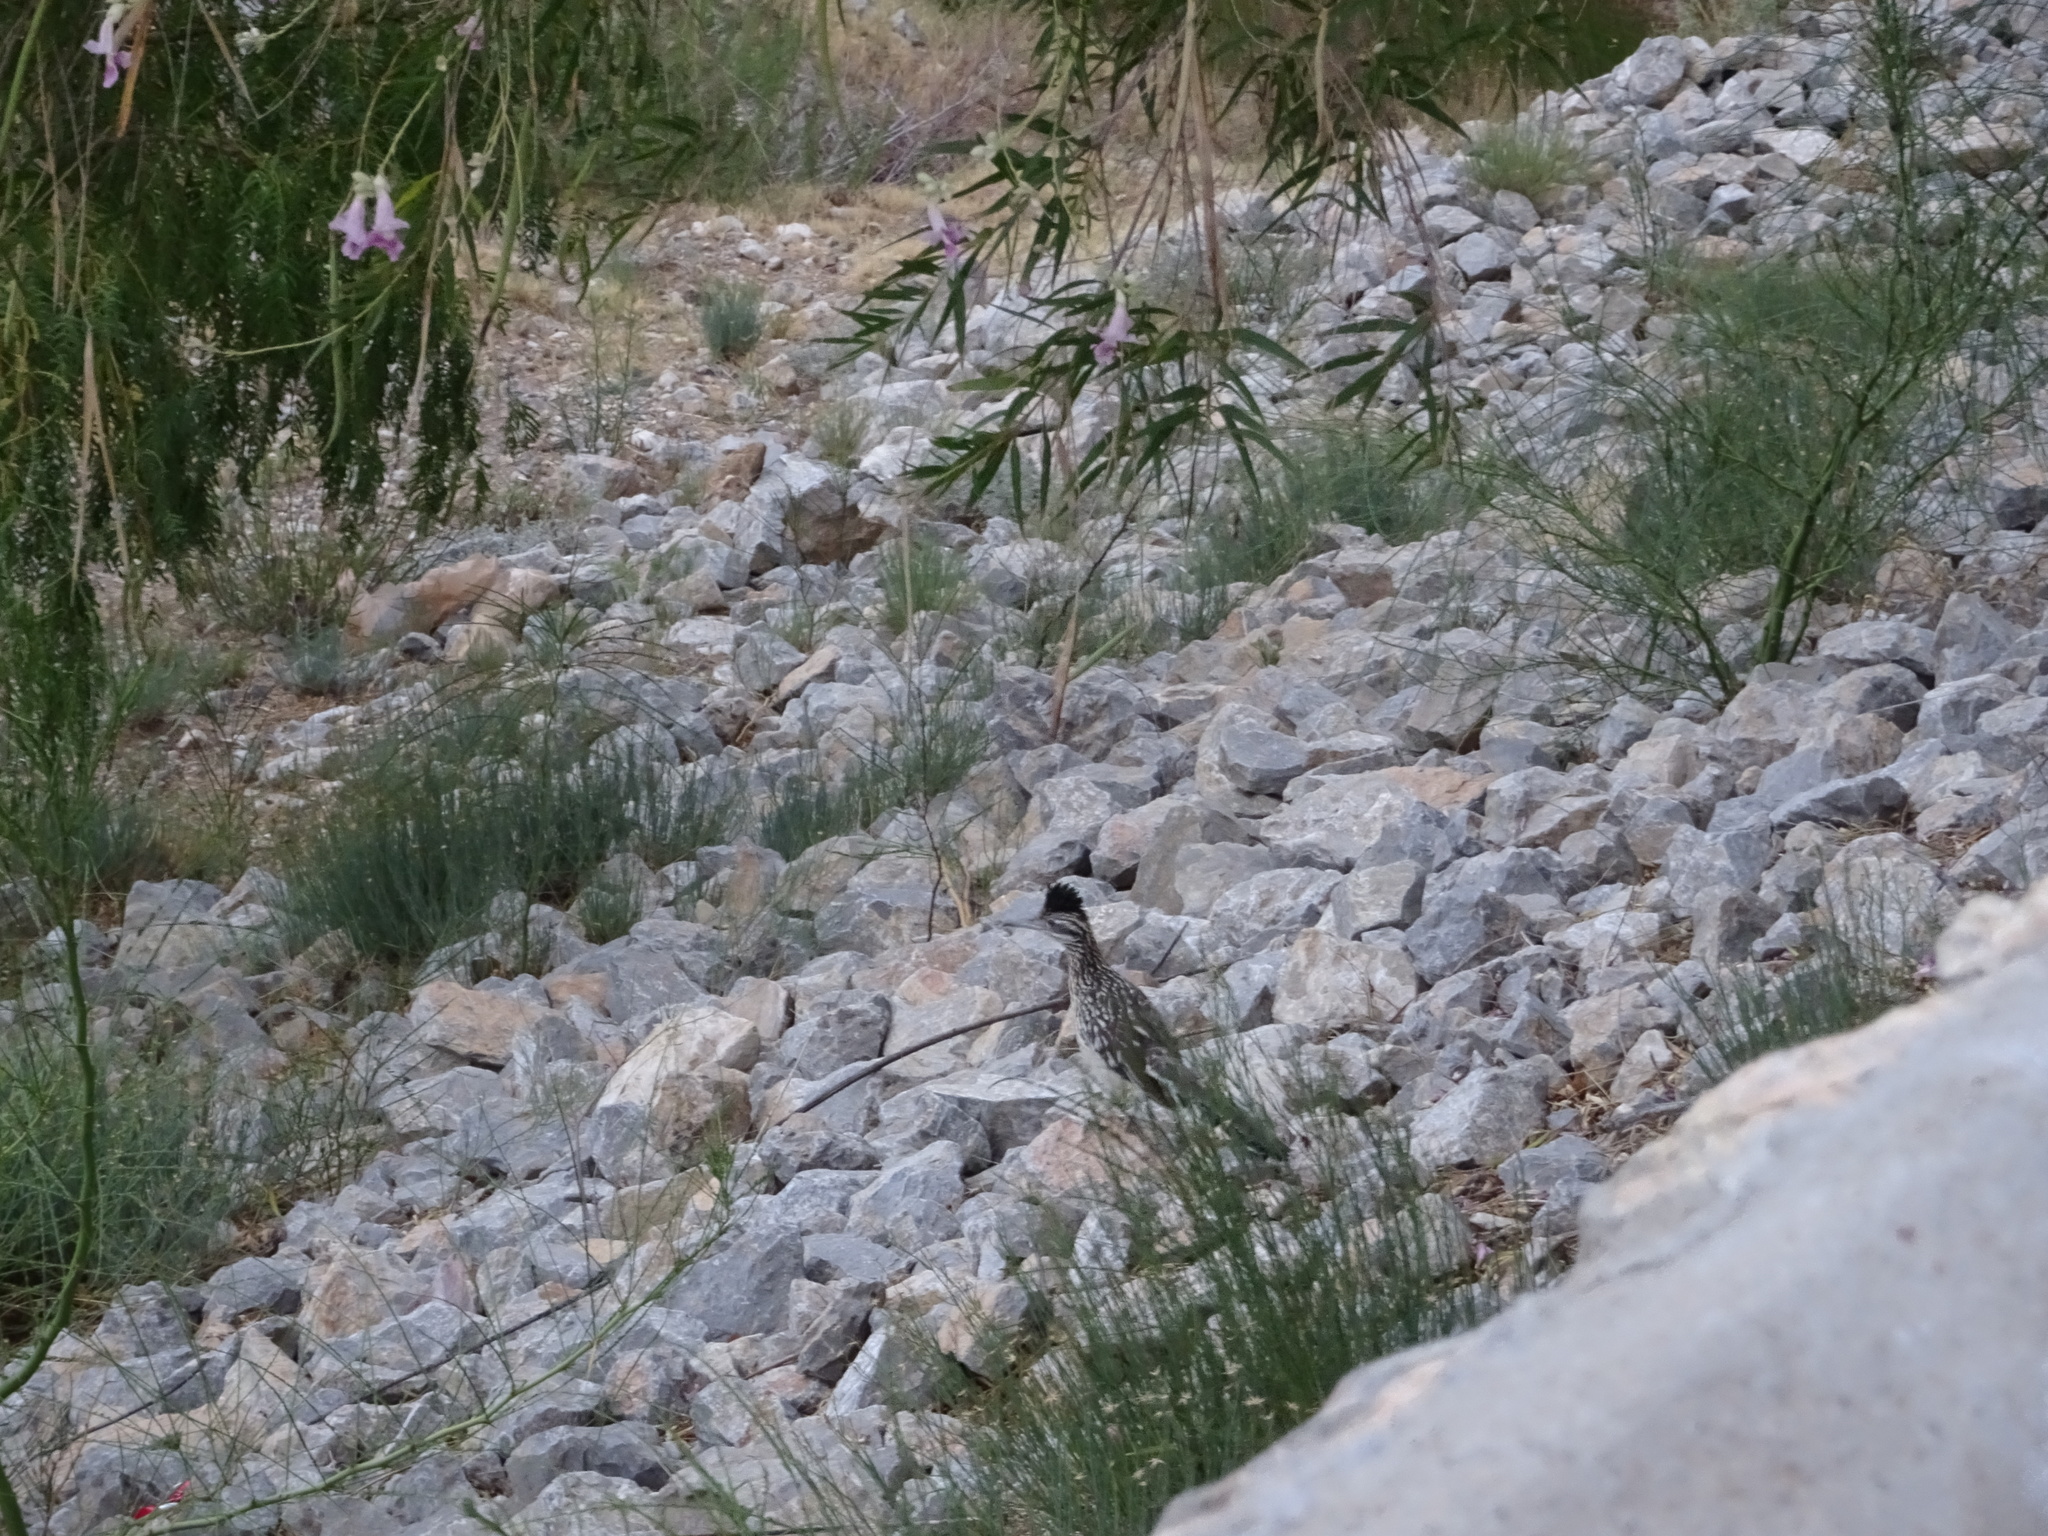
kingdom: Animalia
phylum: Chordata
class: Aves
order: Cuculiformes
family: Cuculidae
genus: Geococcyx
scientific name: Geococcyx californianus
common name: Greater roadrunner
